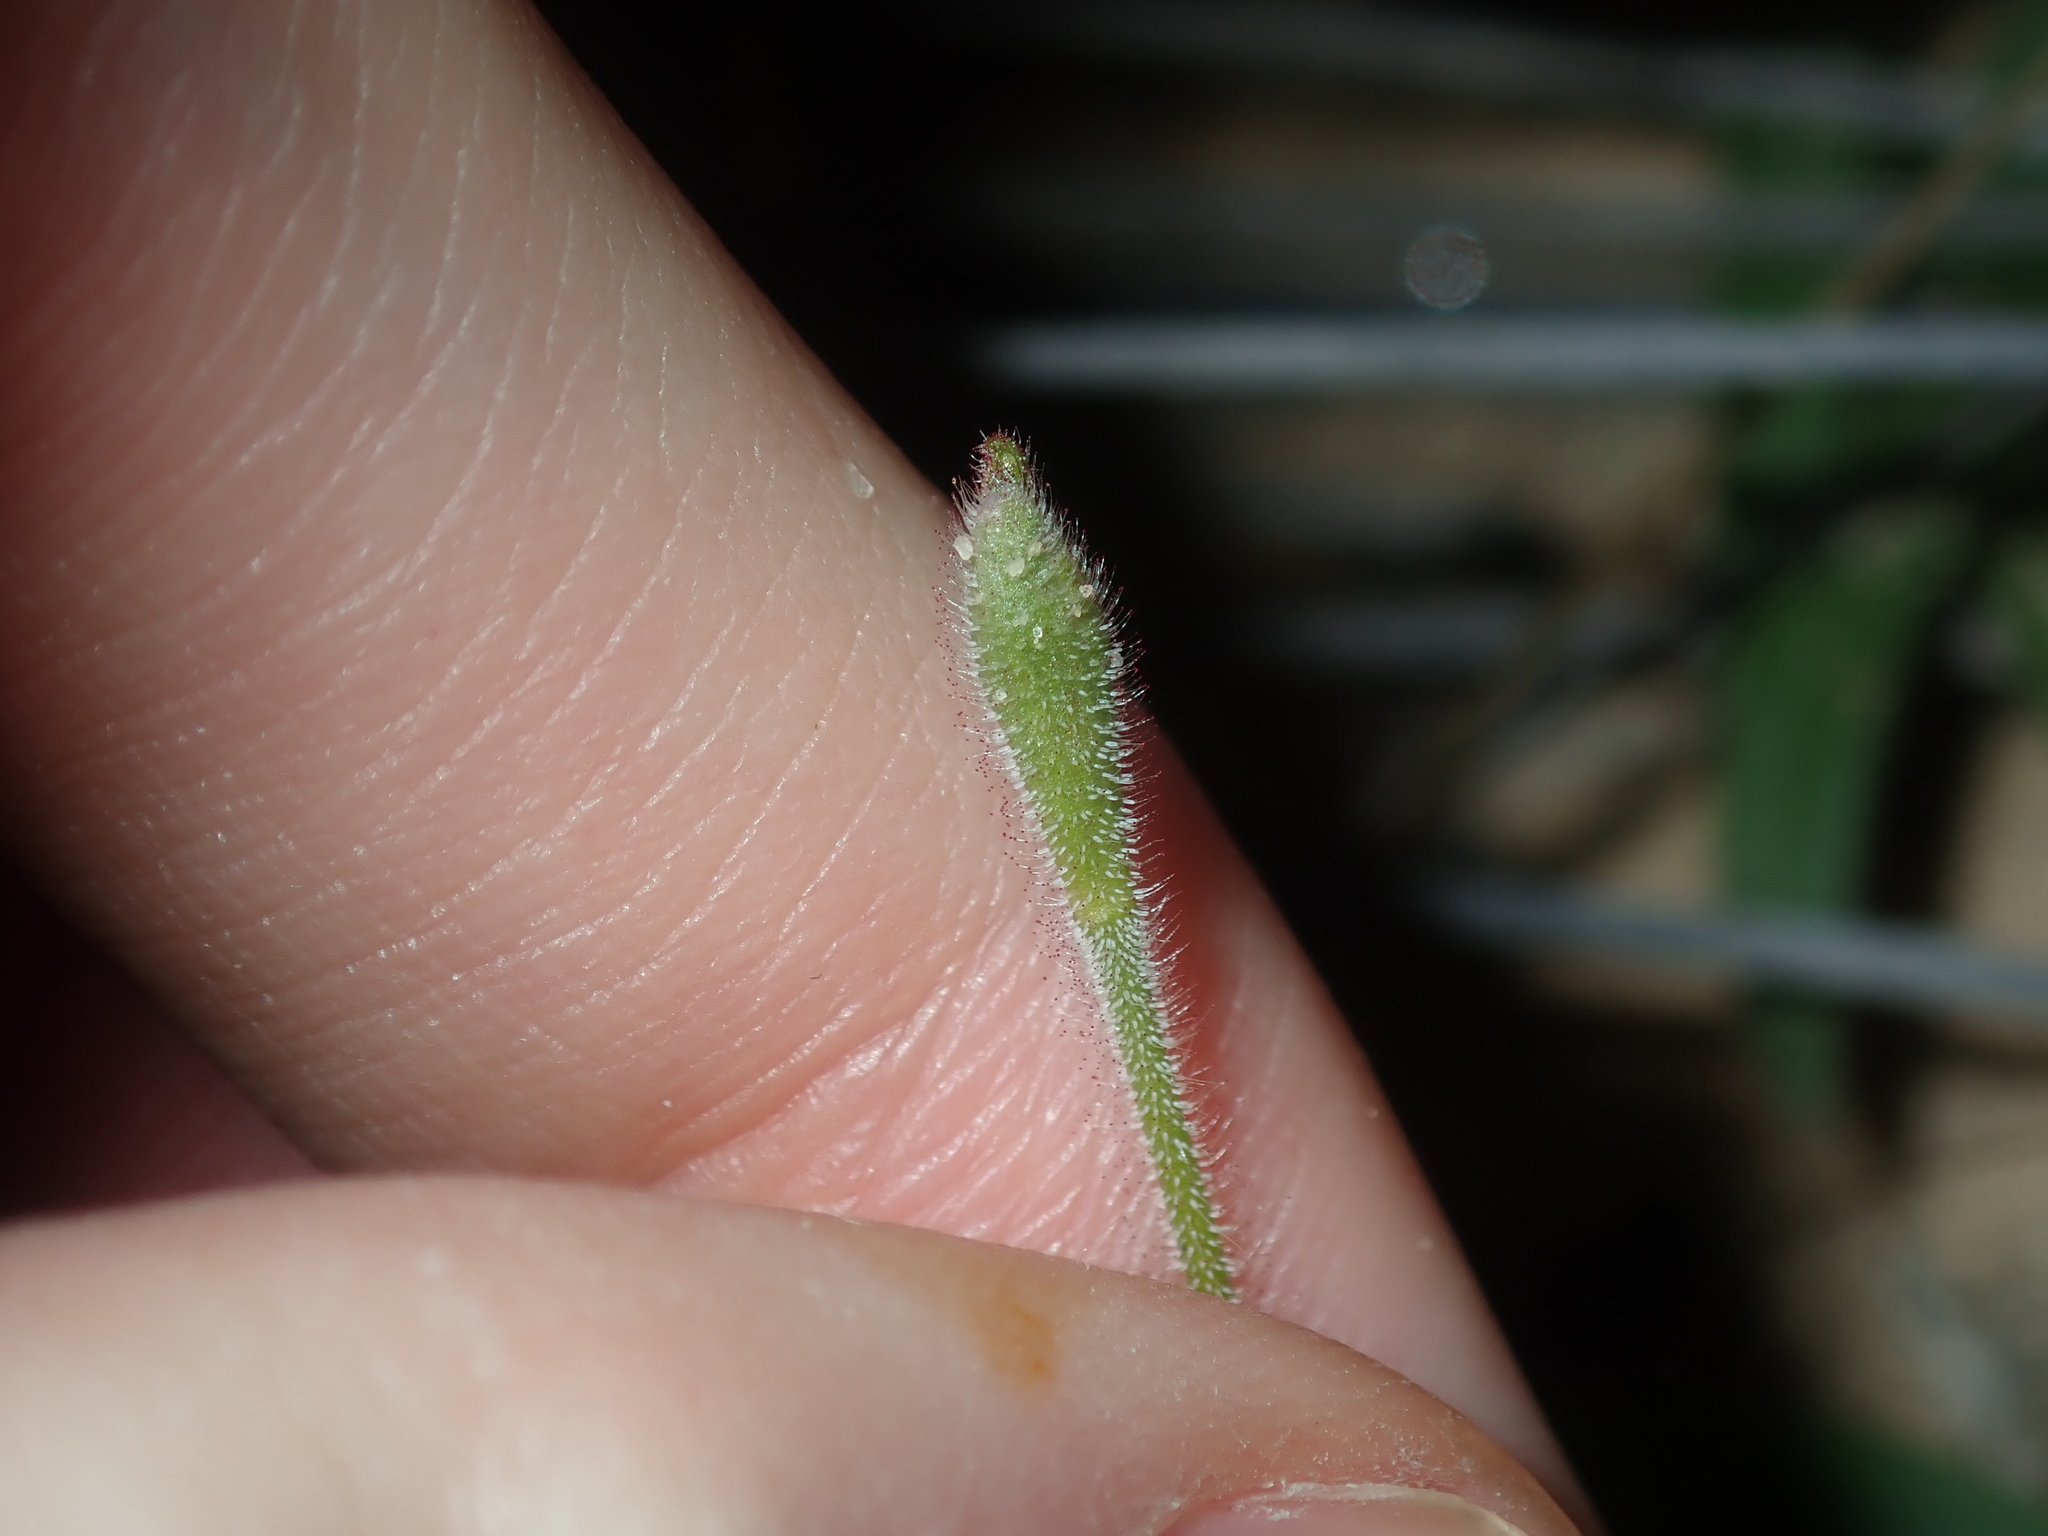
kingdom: Plantae
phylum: Tracheophyta
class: Liliopsida
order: Asparagales
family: Orchidaceae
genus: Caladenia
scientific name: Caladenia flava
